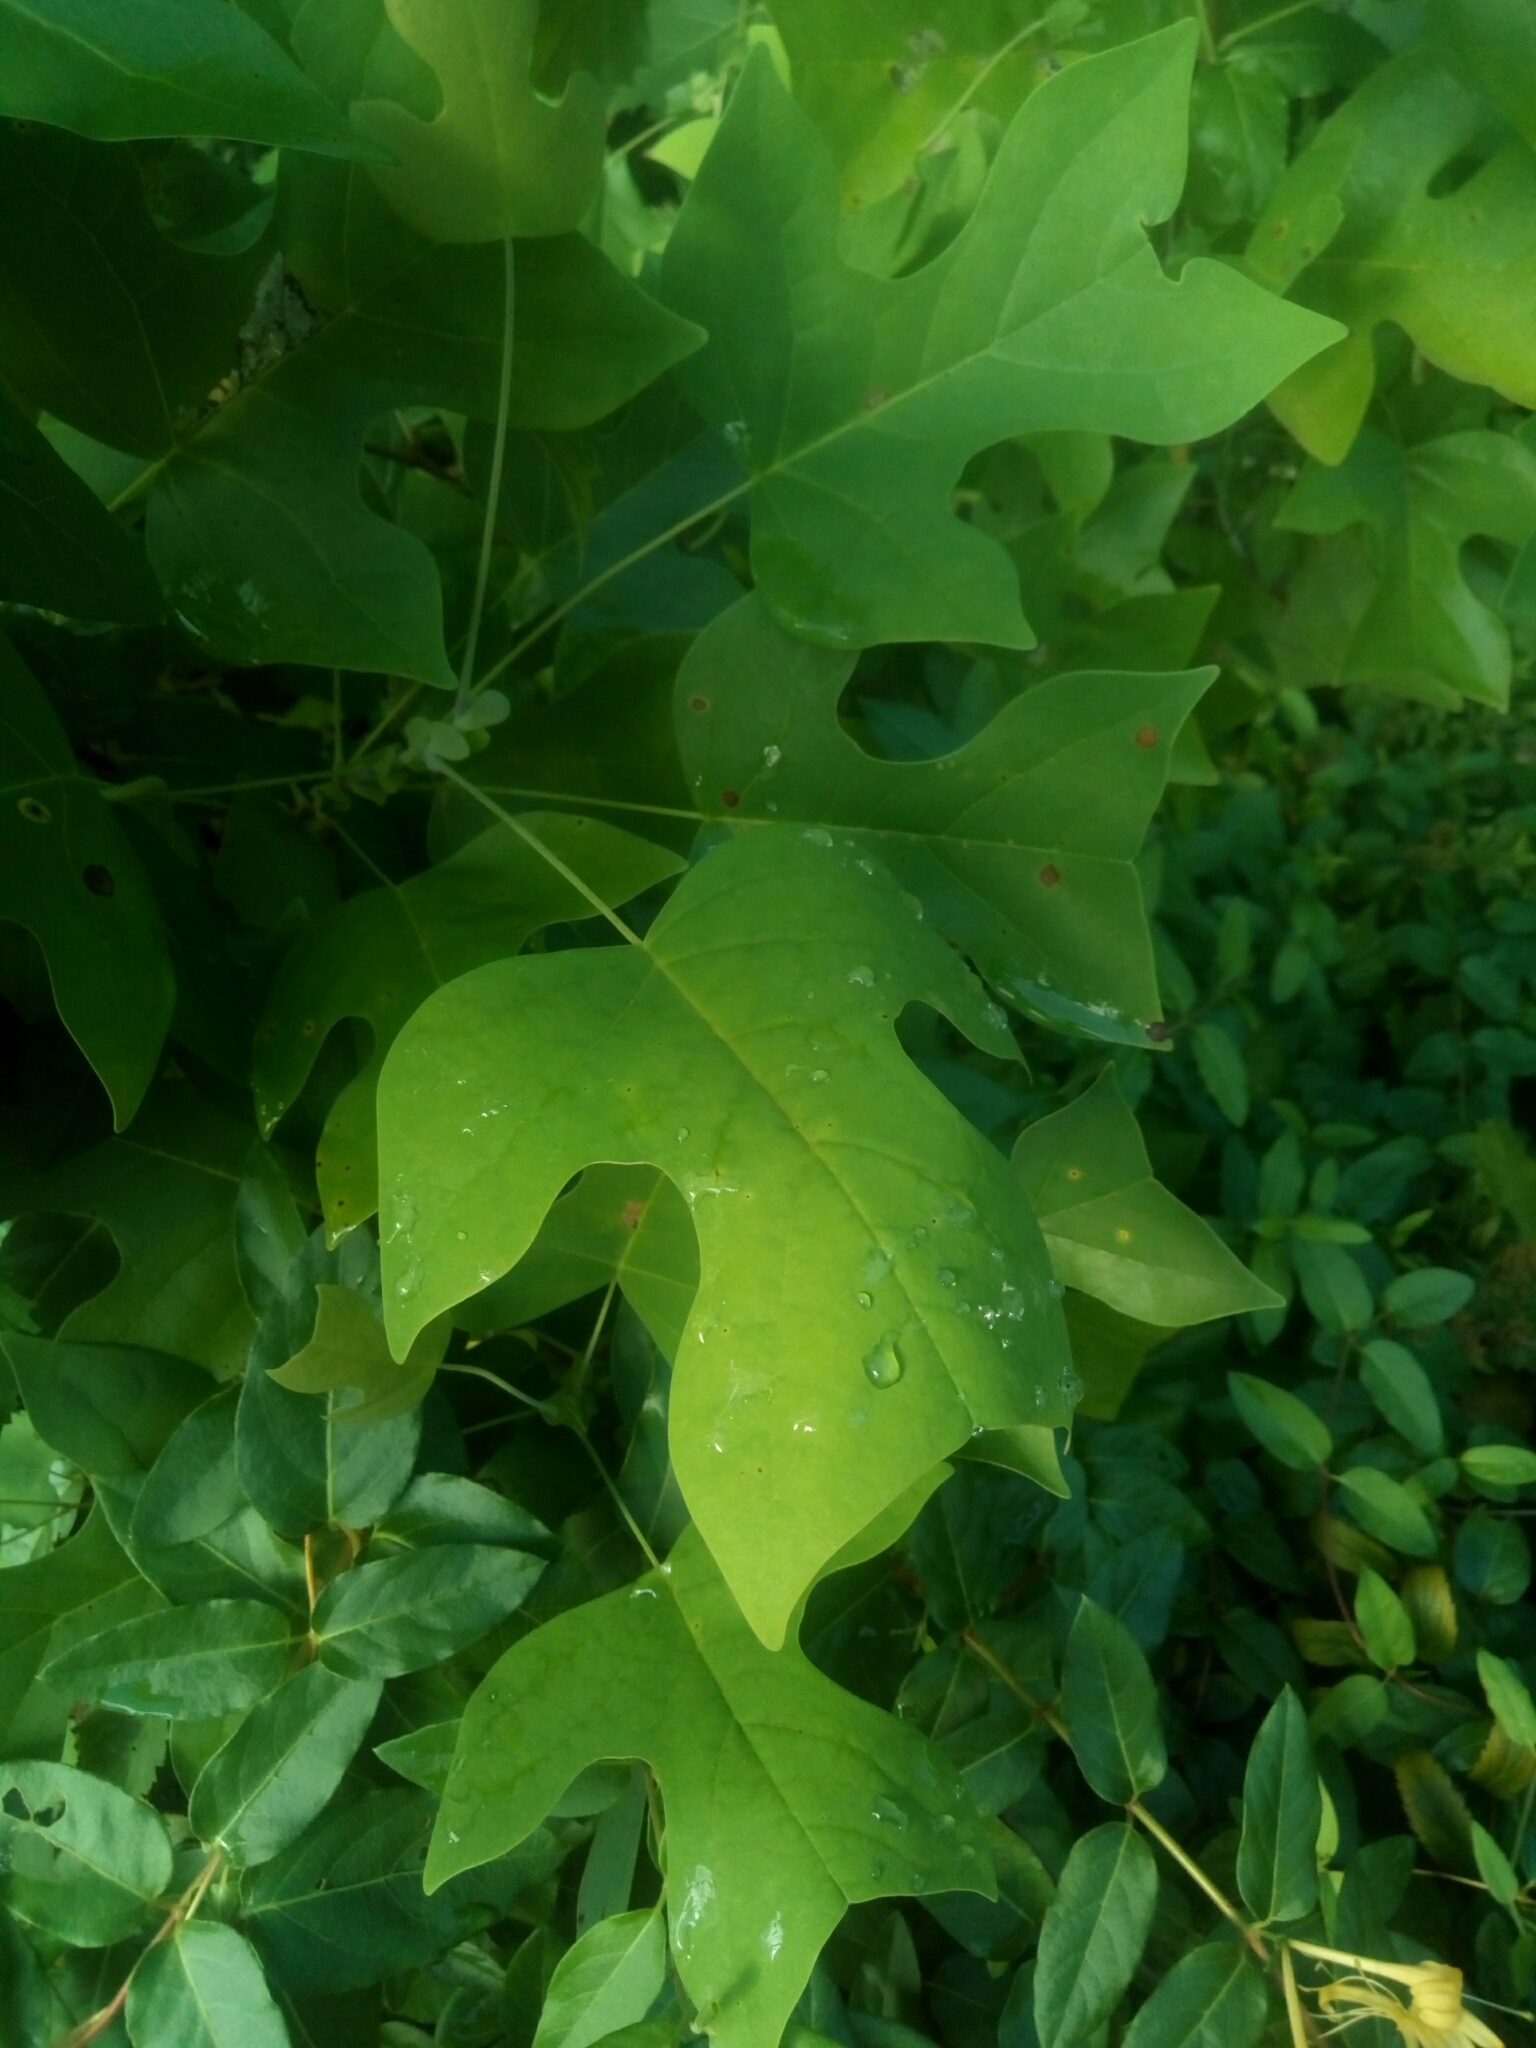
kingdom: Plantae
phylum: Tracheophyta
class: Magnoliopsida
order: Magnoliales
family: Magnoliaceae
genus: Liriodendron
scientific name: Liriodendron tulipifera
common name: Tulip tree
